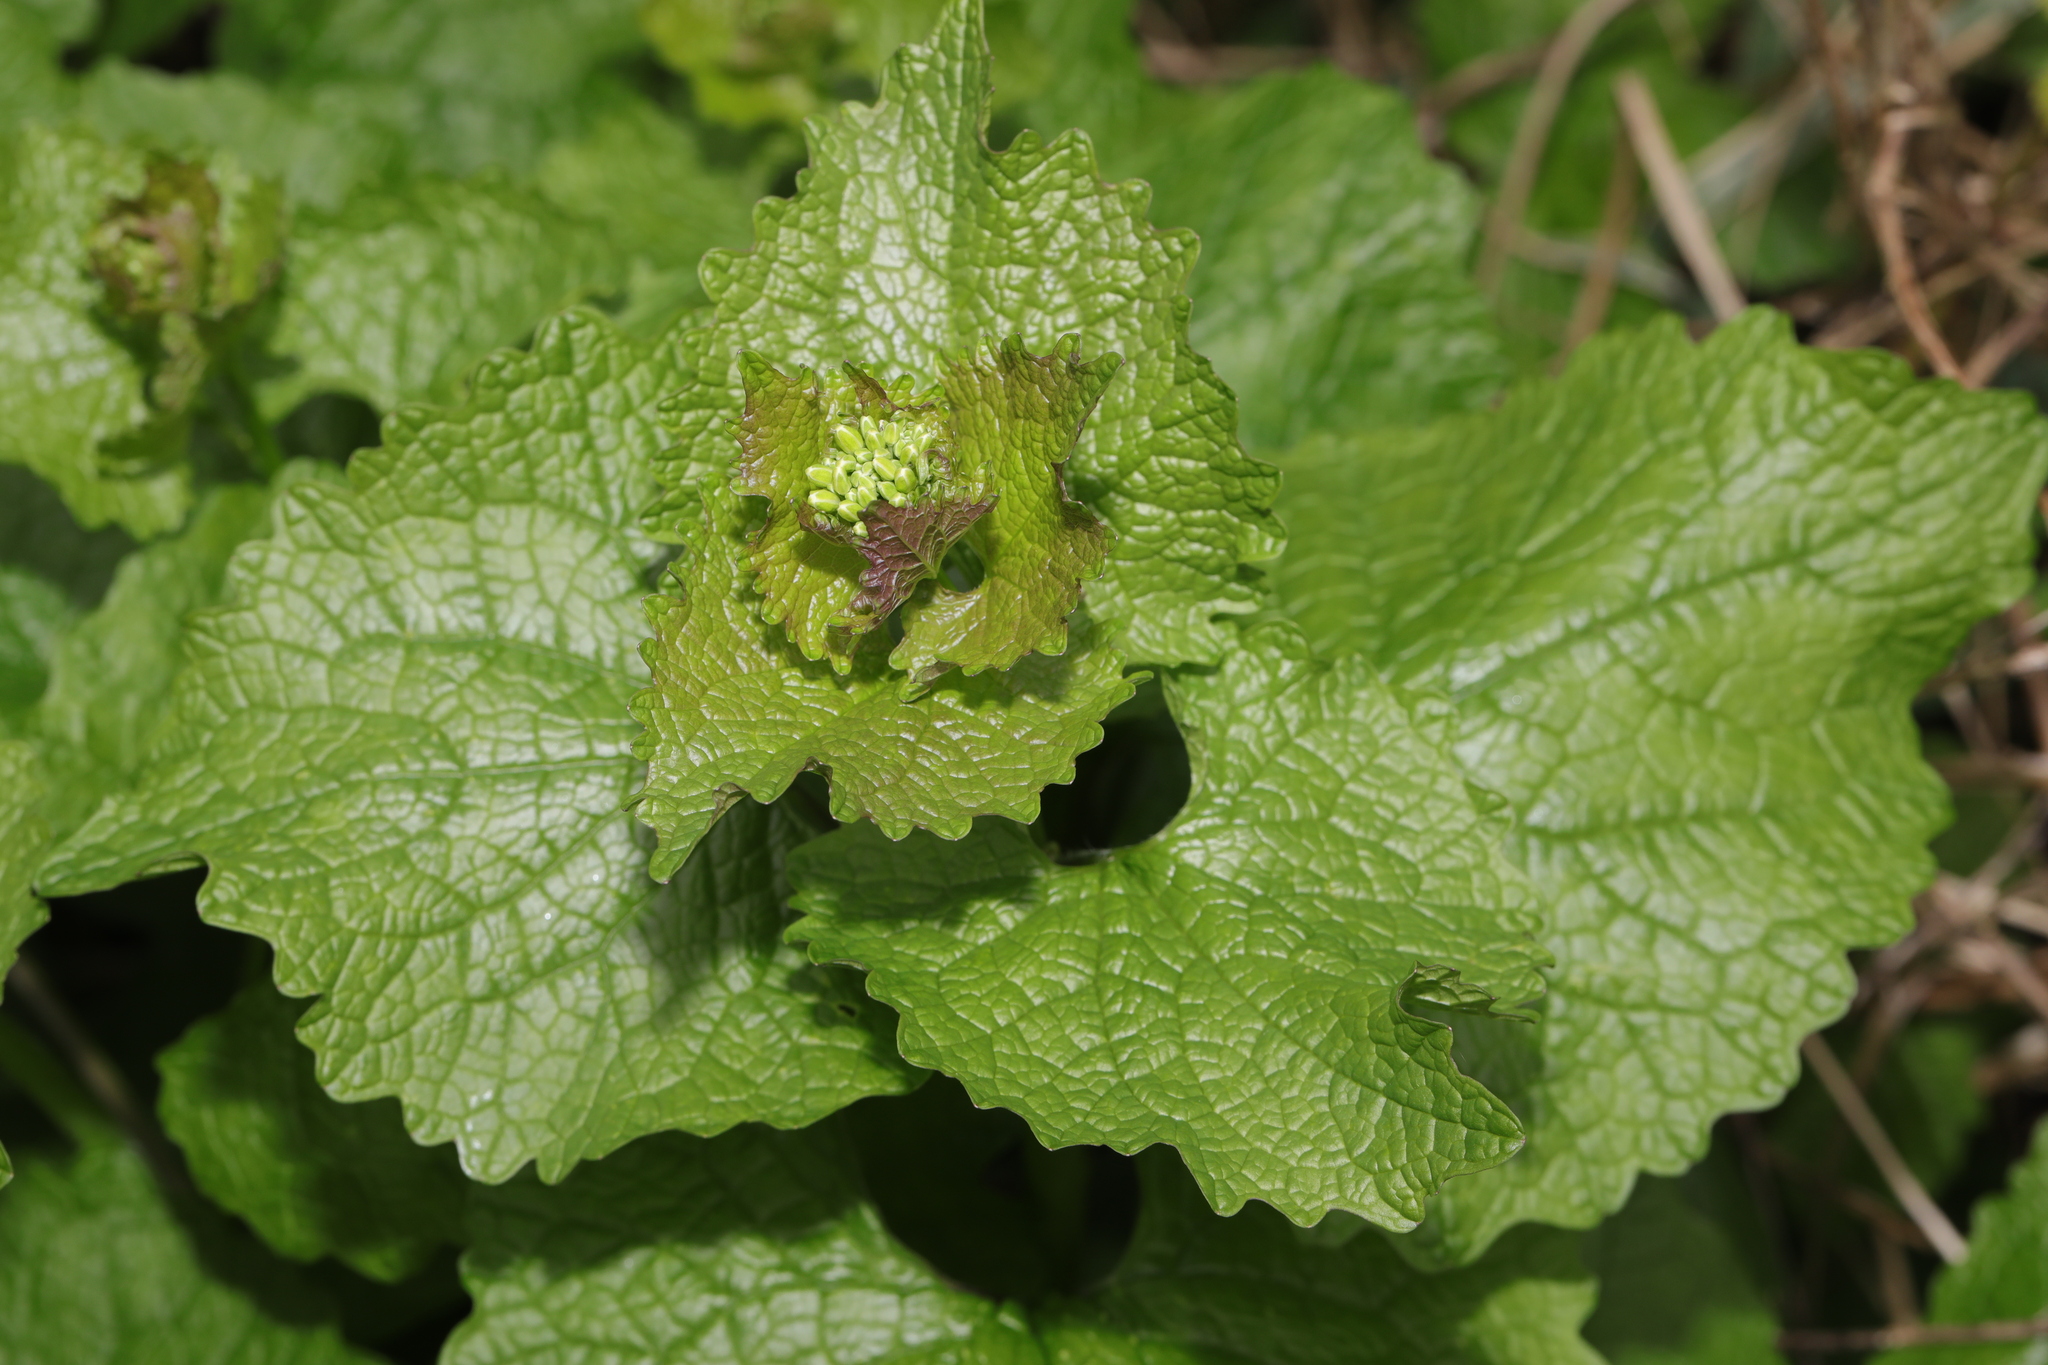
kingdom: Plantae
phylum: Tracheophyta
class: Magnoliopsida
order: Brassicales
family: Brassicaceae
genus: Alliaria
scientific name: Alliaria petiolata
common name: Garlic mustard
